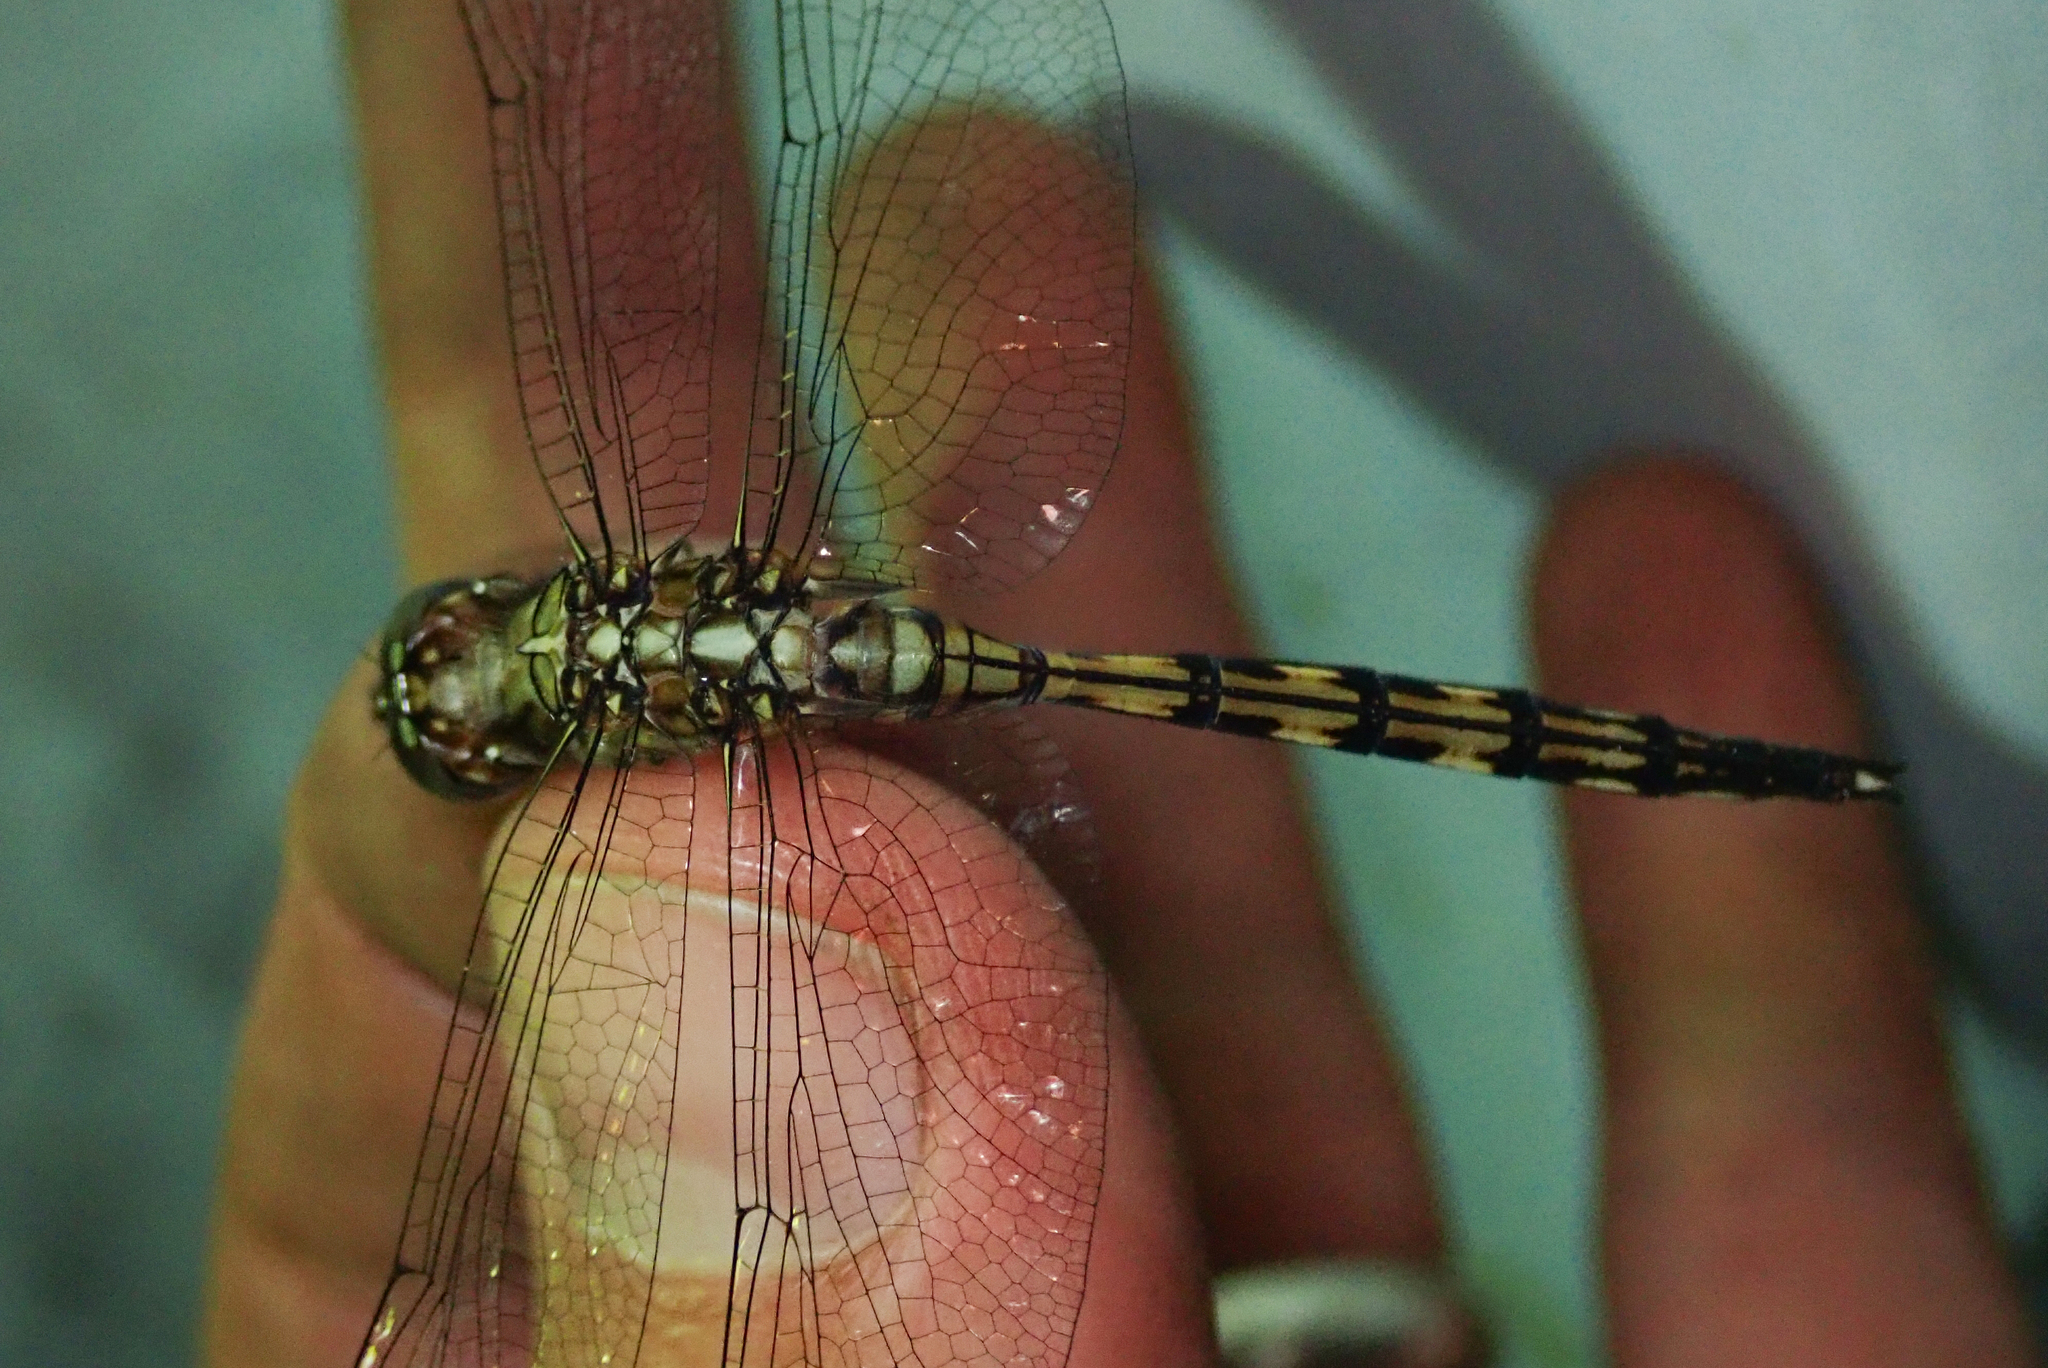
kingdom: Animalia
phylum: Arthropoda
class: Insecta
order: Odonata
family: Libellulidae
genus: Orthetrum
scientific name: Orthetrum brachiale
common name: Banded skimmer
